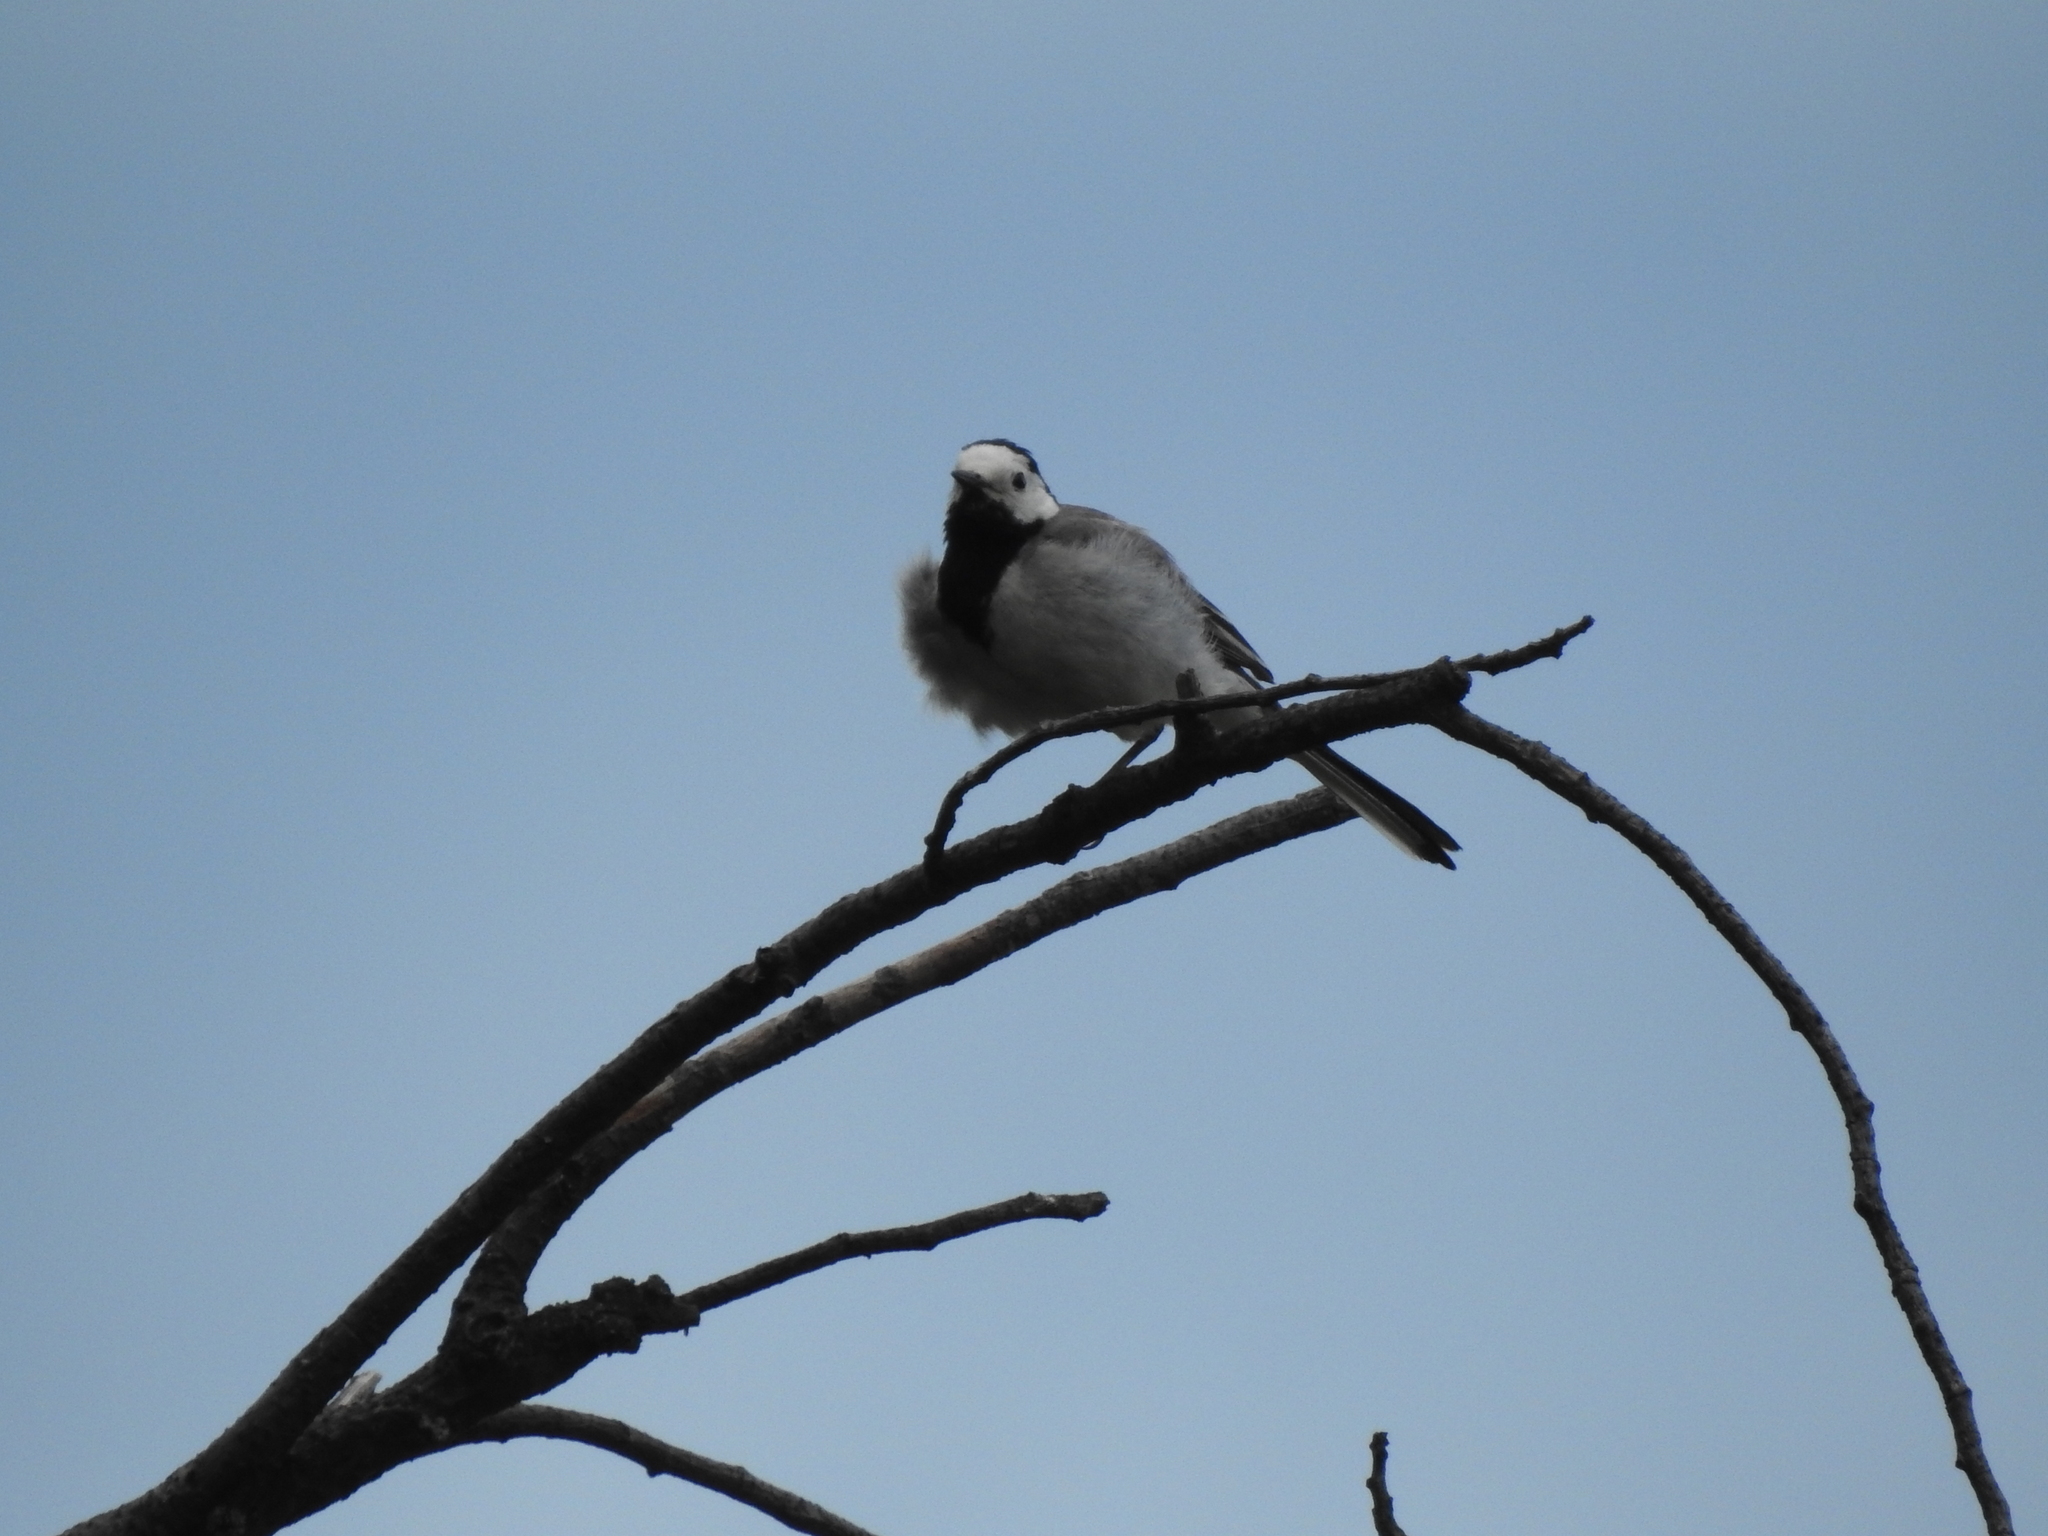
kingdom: Animalia
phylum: Chordata
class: Aves
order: Passeriformes
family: Motacillidae
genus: Motacilla
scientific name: Motacilla alba
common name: White wagtail
